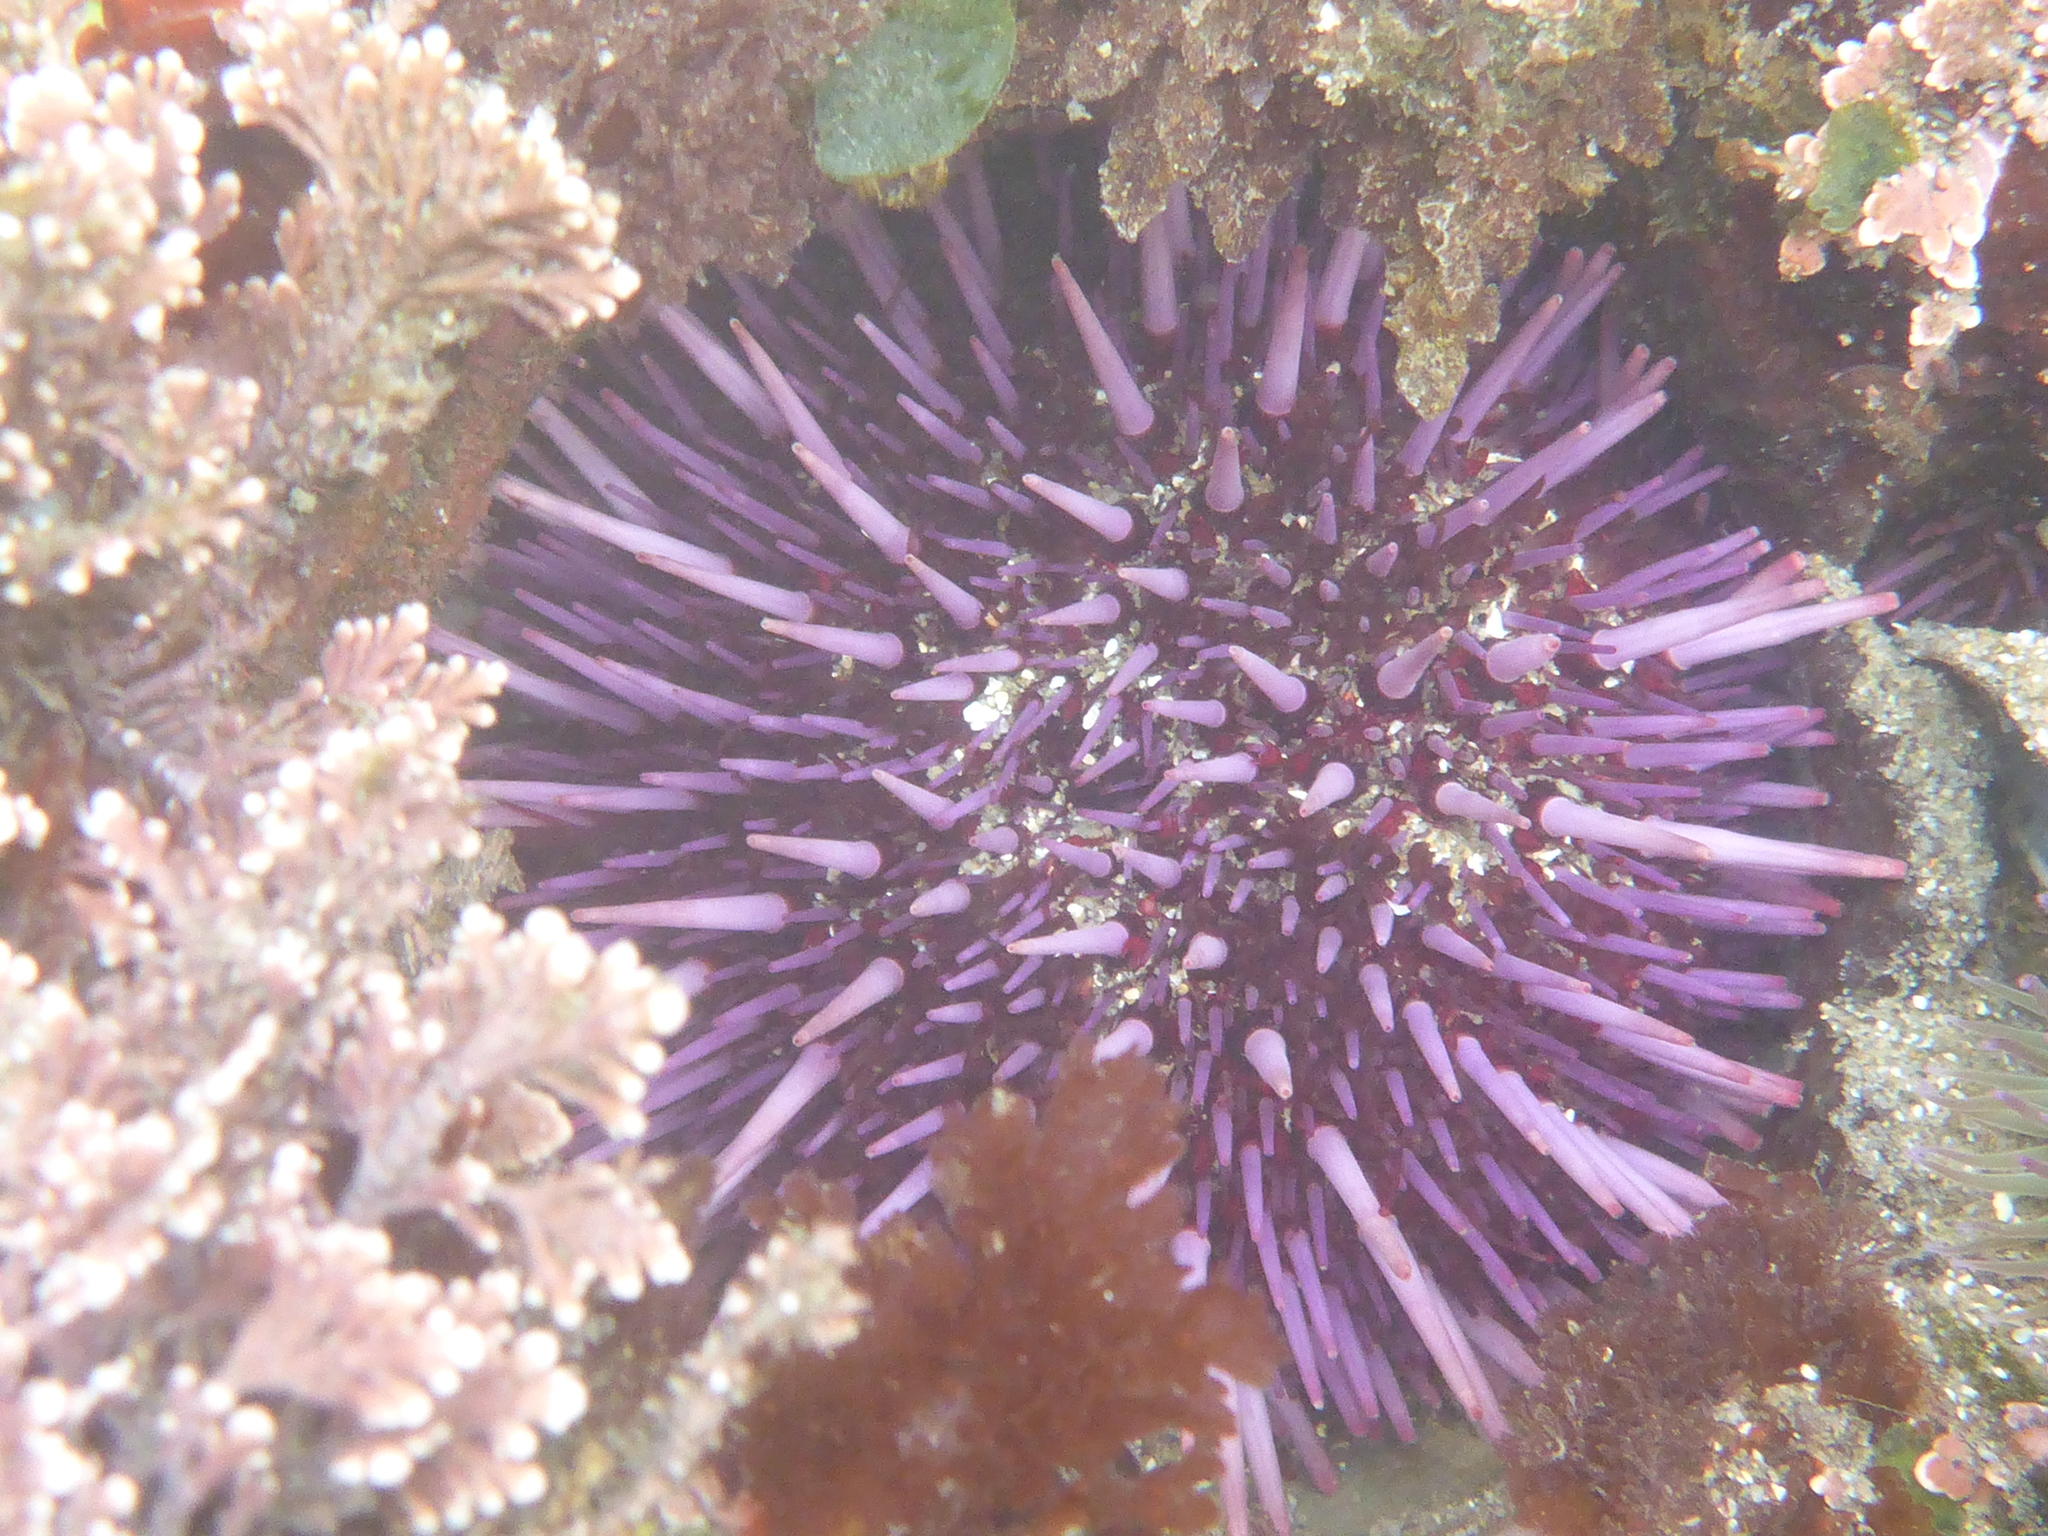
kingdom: Animalia
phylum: Echinodermata
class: Echinoidea
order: Camarodonta
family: Strongylocentrotidae
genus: Strongylocentrotus
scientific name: Strongylocentrotus purpuratus
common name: Purple sea urchin
